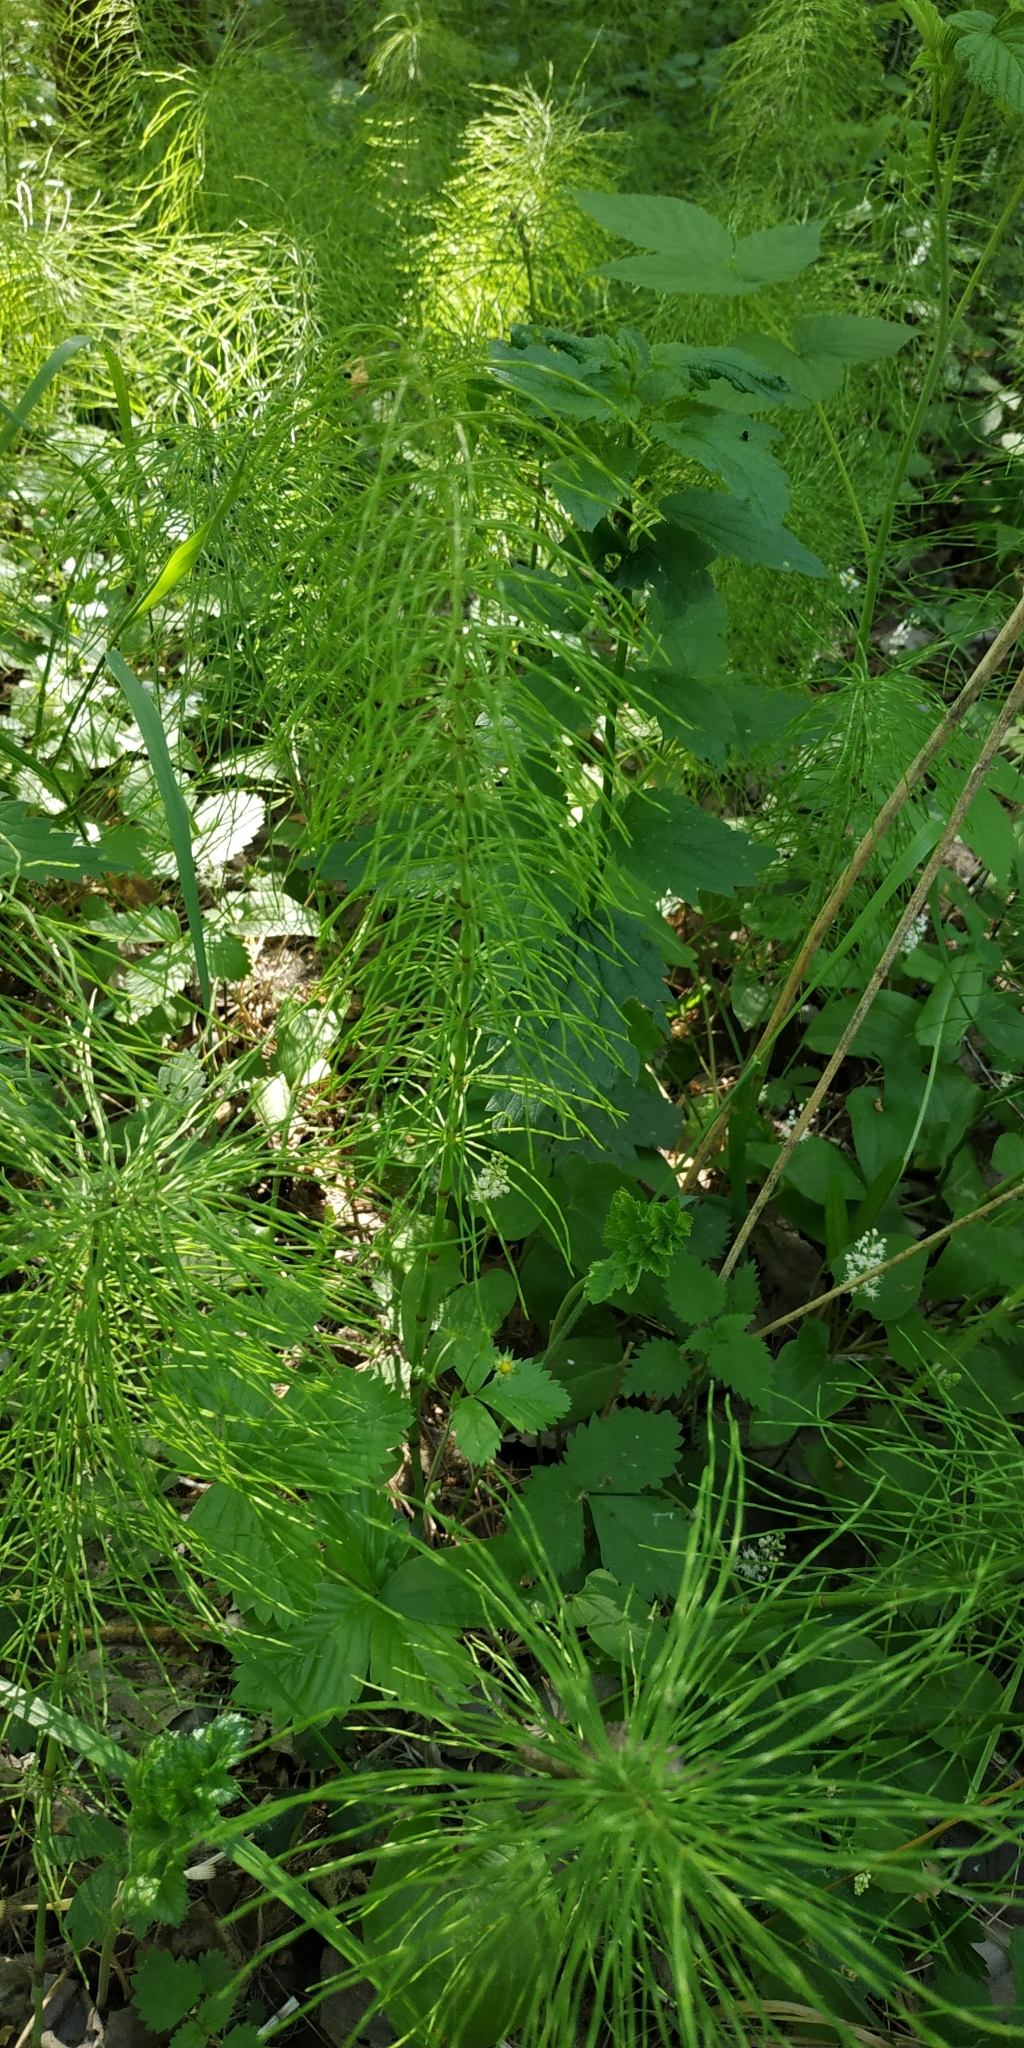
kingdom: Plantae
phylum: Tracheophyta
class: Polypodiopsida
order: Equisetales
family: Equisetaceae
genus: Equisetum
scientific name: Equisetum pratense
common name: Meadow horsetail
